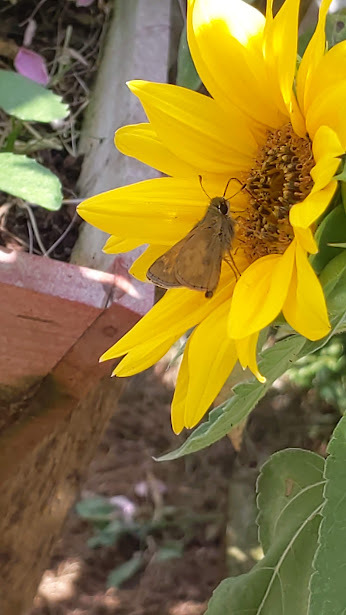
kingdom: Animalia
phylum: Arthropoda
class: Insecta
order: Lepidoptera
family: Hesperiidae
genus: Atalopedes
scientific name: Atalopedes
